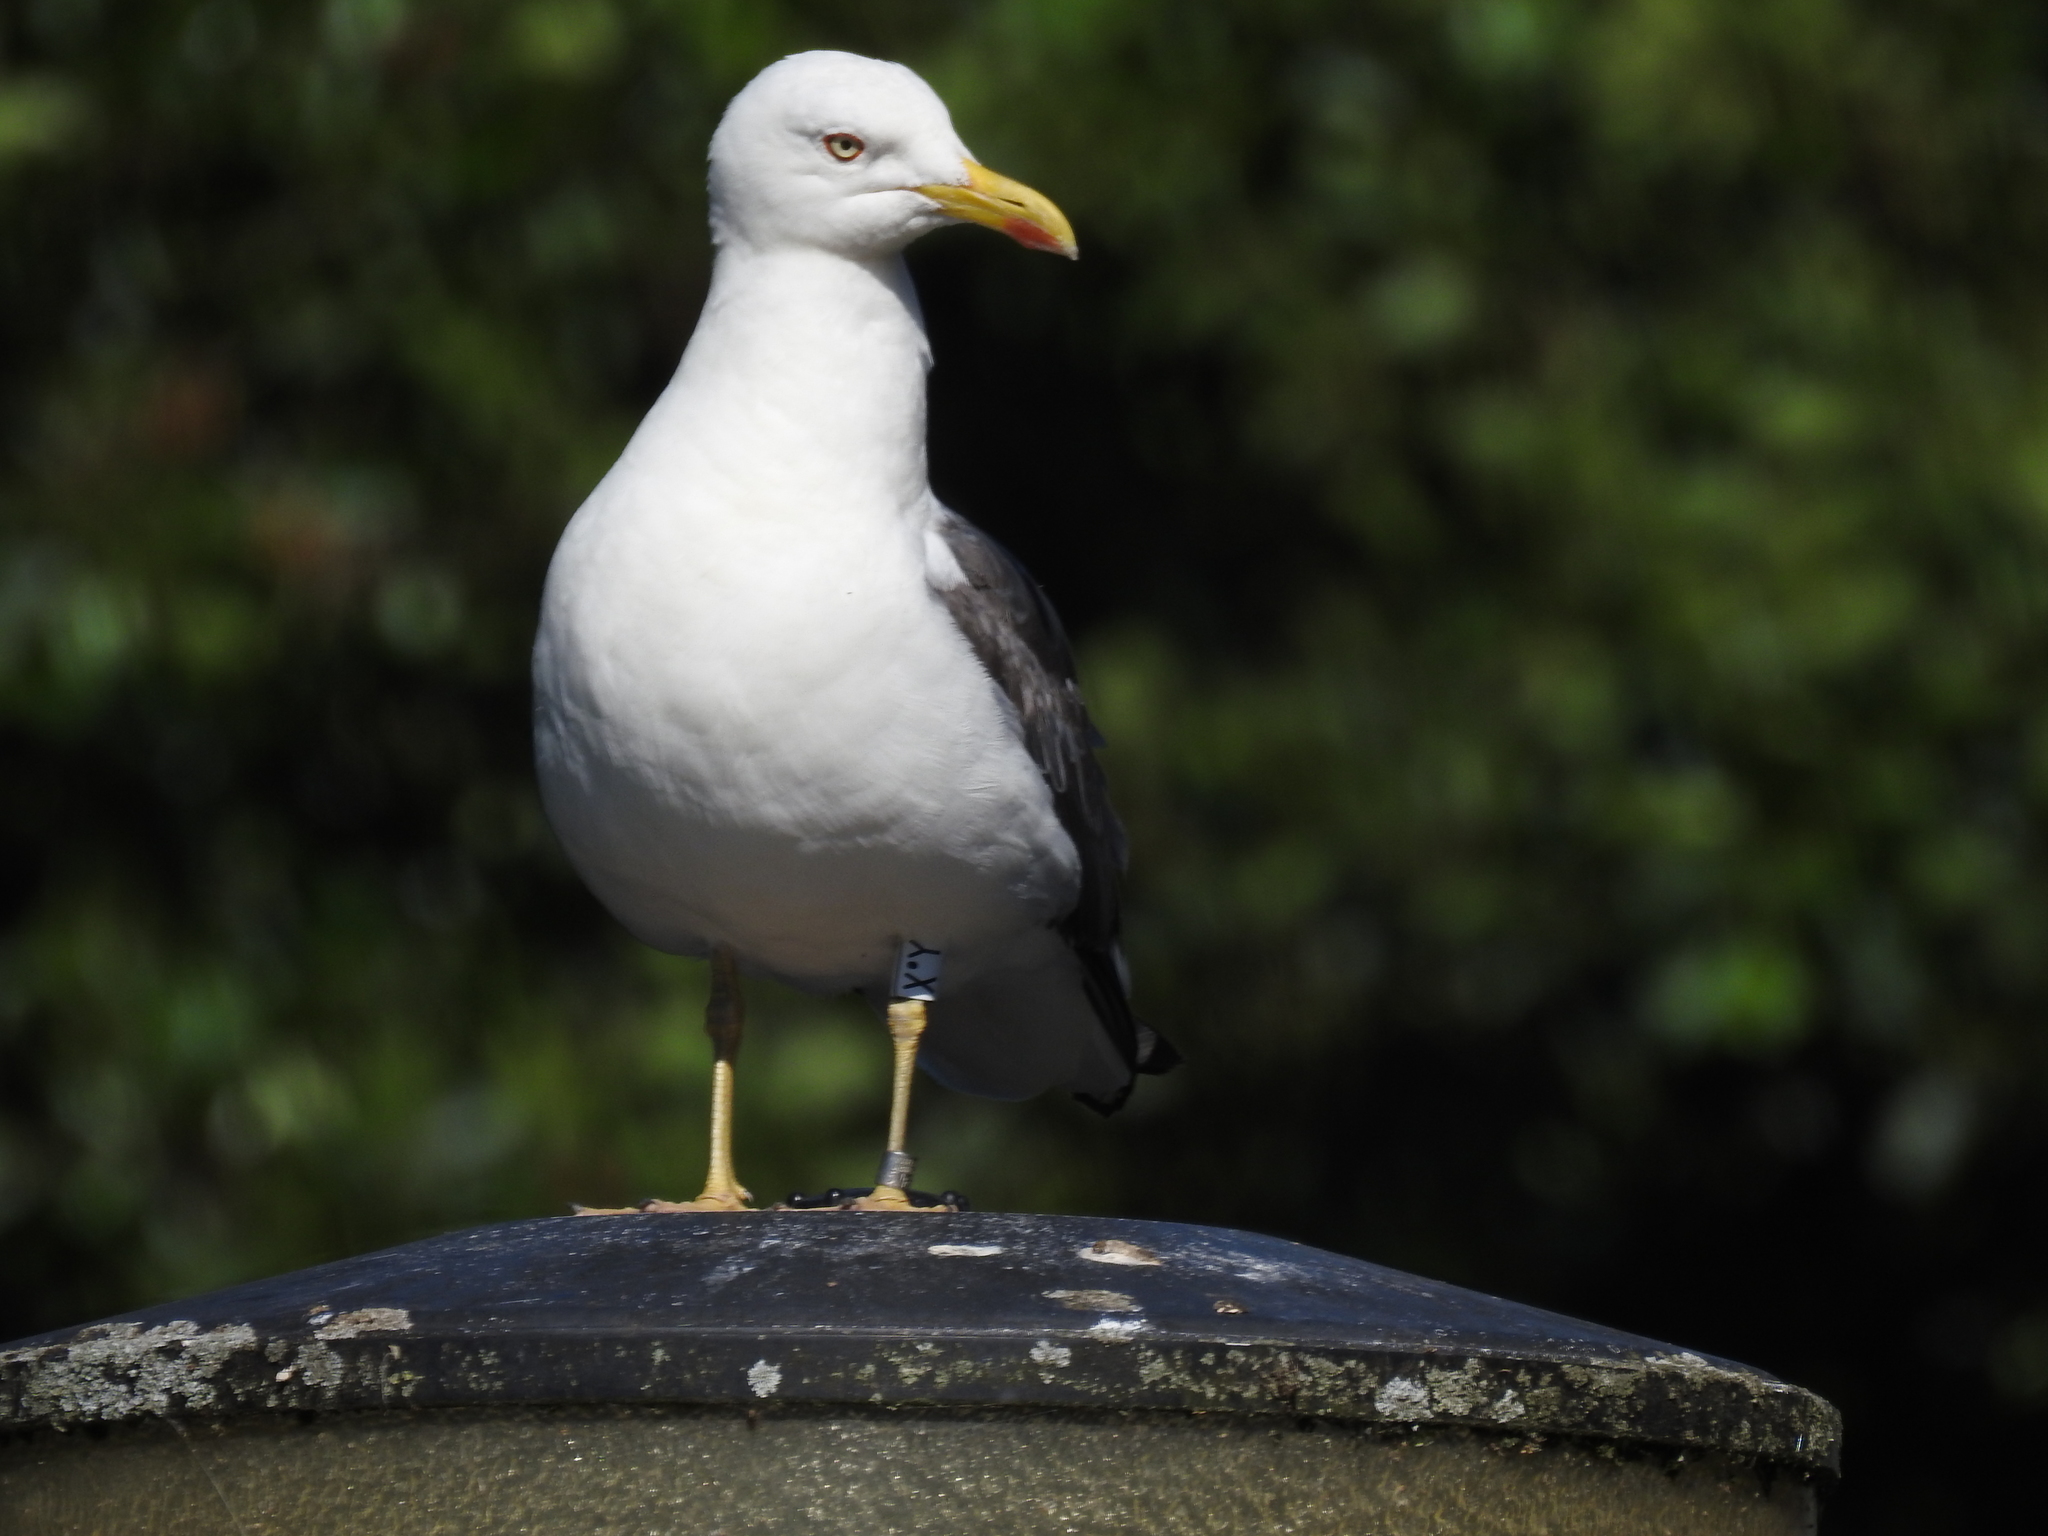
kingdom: Animalia
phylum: Chordata
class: Aves
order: Charadriiformes
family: Laridae
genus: Larus
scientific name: Larus fuscus
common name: Lesser black-backed gull
